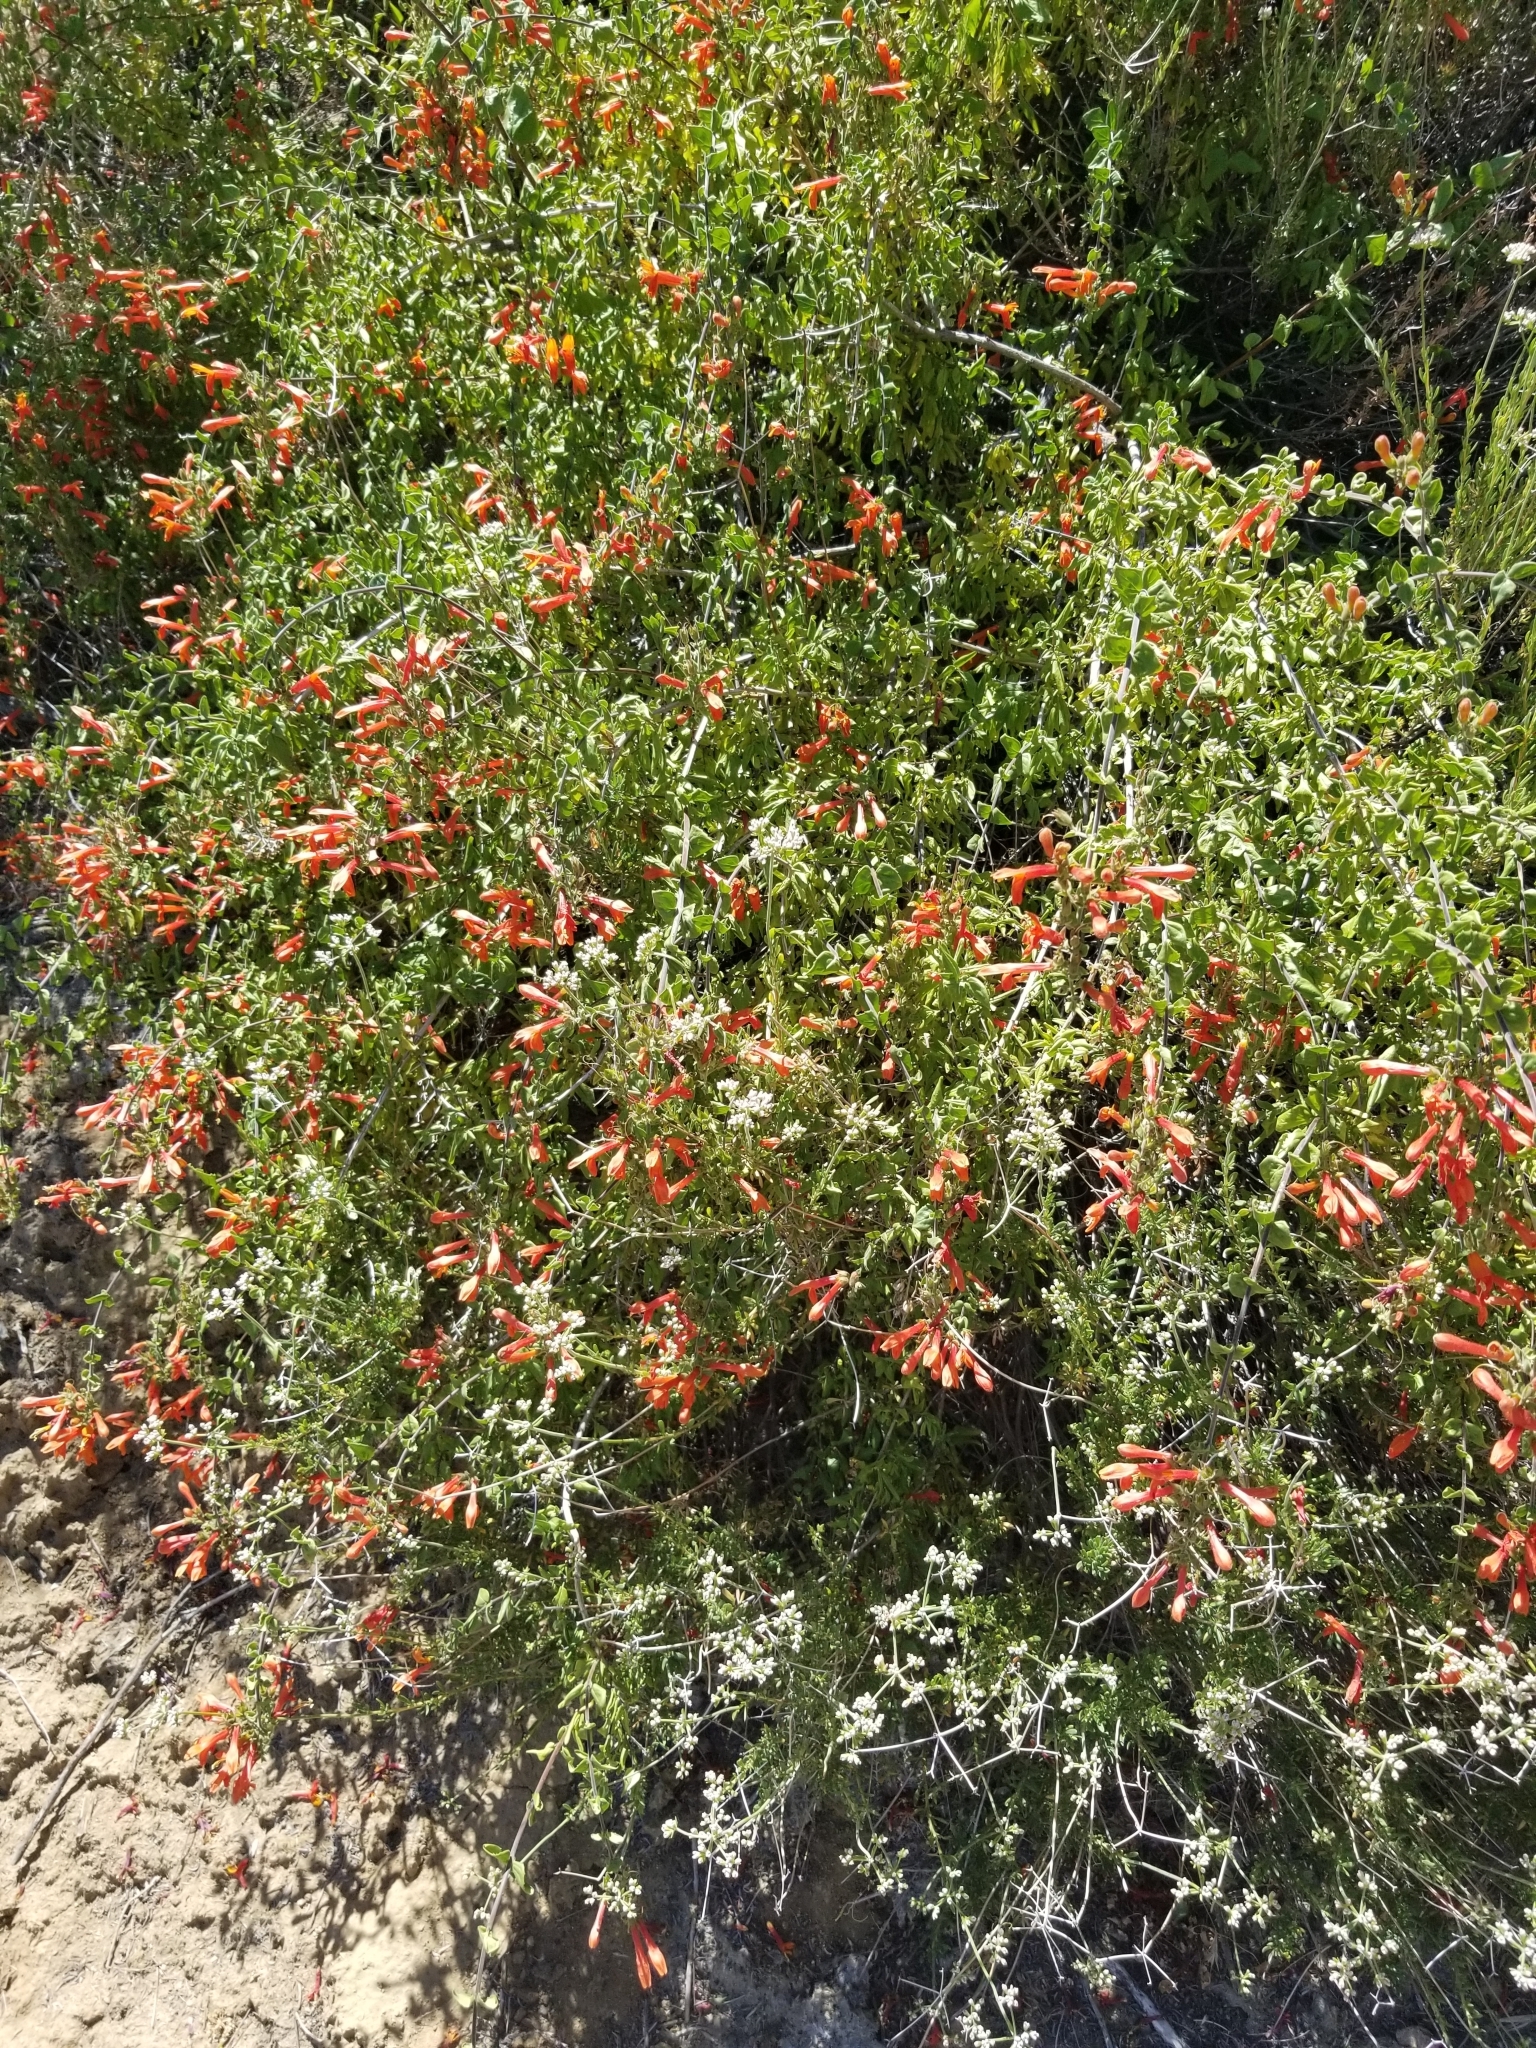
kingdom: Plantae
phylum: Tracheophyta
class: Magnoliopsida
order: Lamiales
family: Plantaginaceae
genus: Keckiella
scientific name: Keckiella cordifolia
